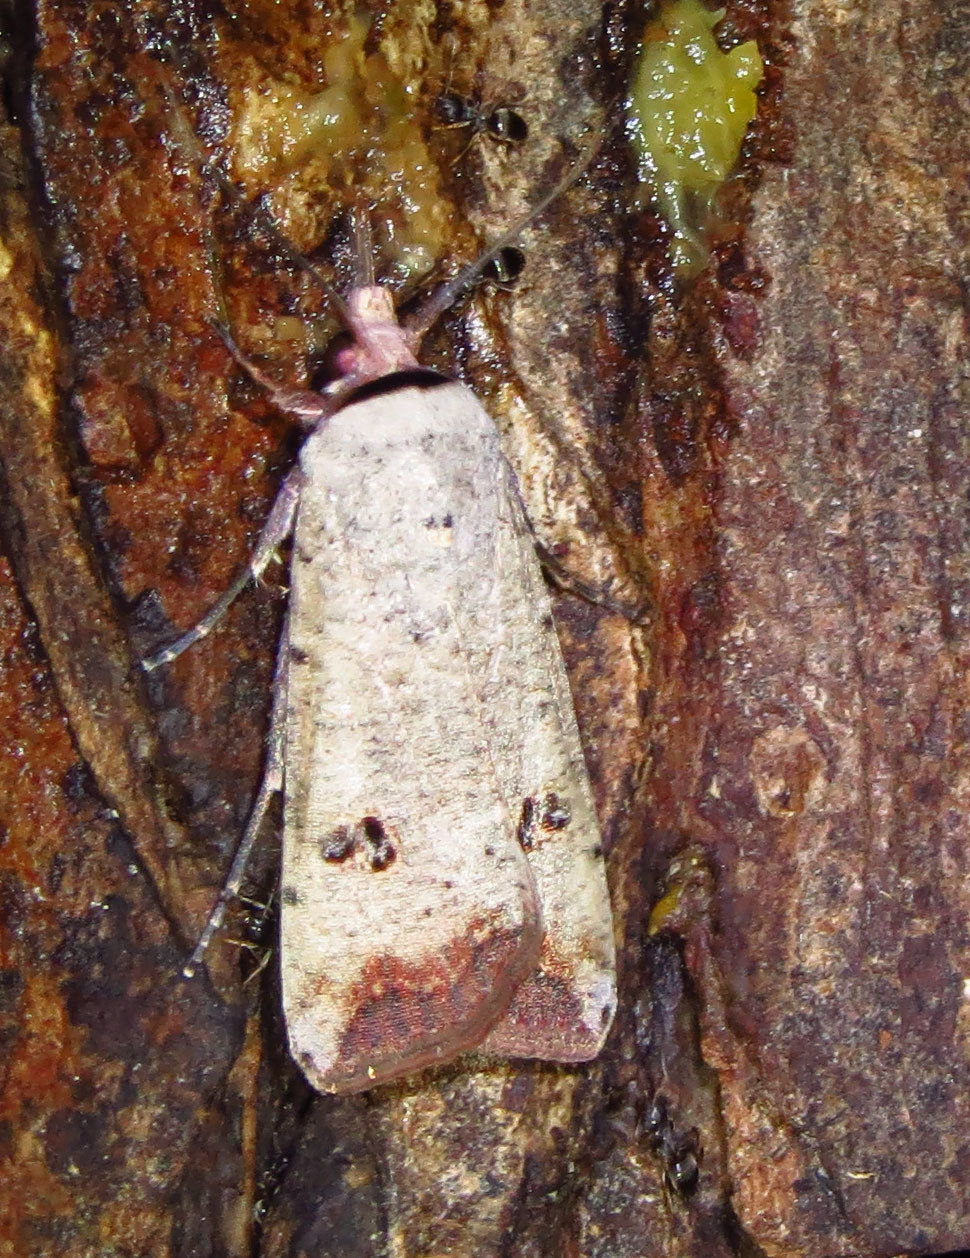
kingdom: Animalia
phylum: Arthropoda
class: Insecta
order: Lepidoptera
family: Noctuidae
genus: Anicla
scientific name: Anicla infecta
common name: Green cutworm
